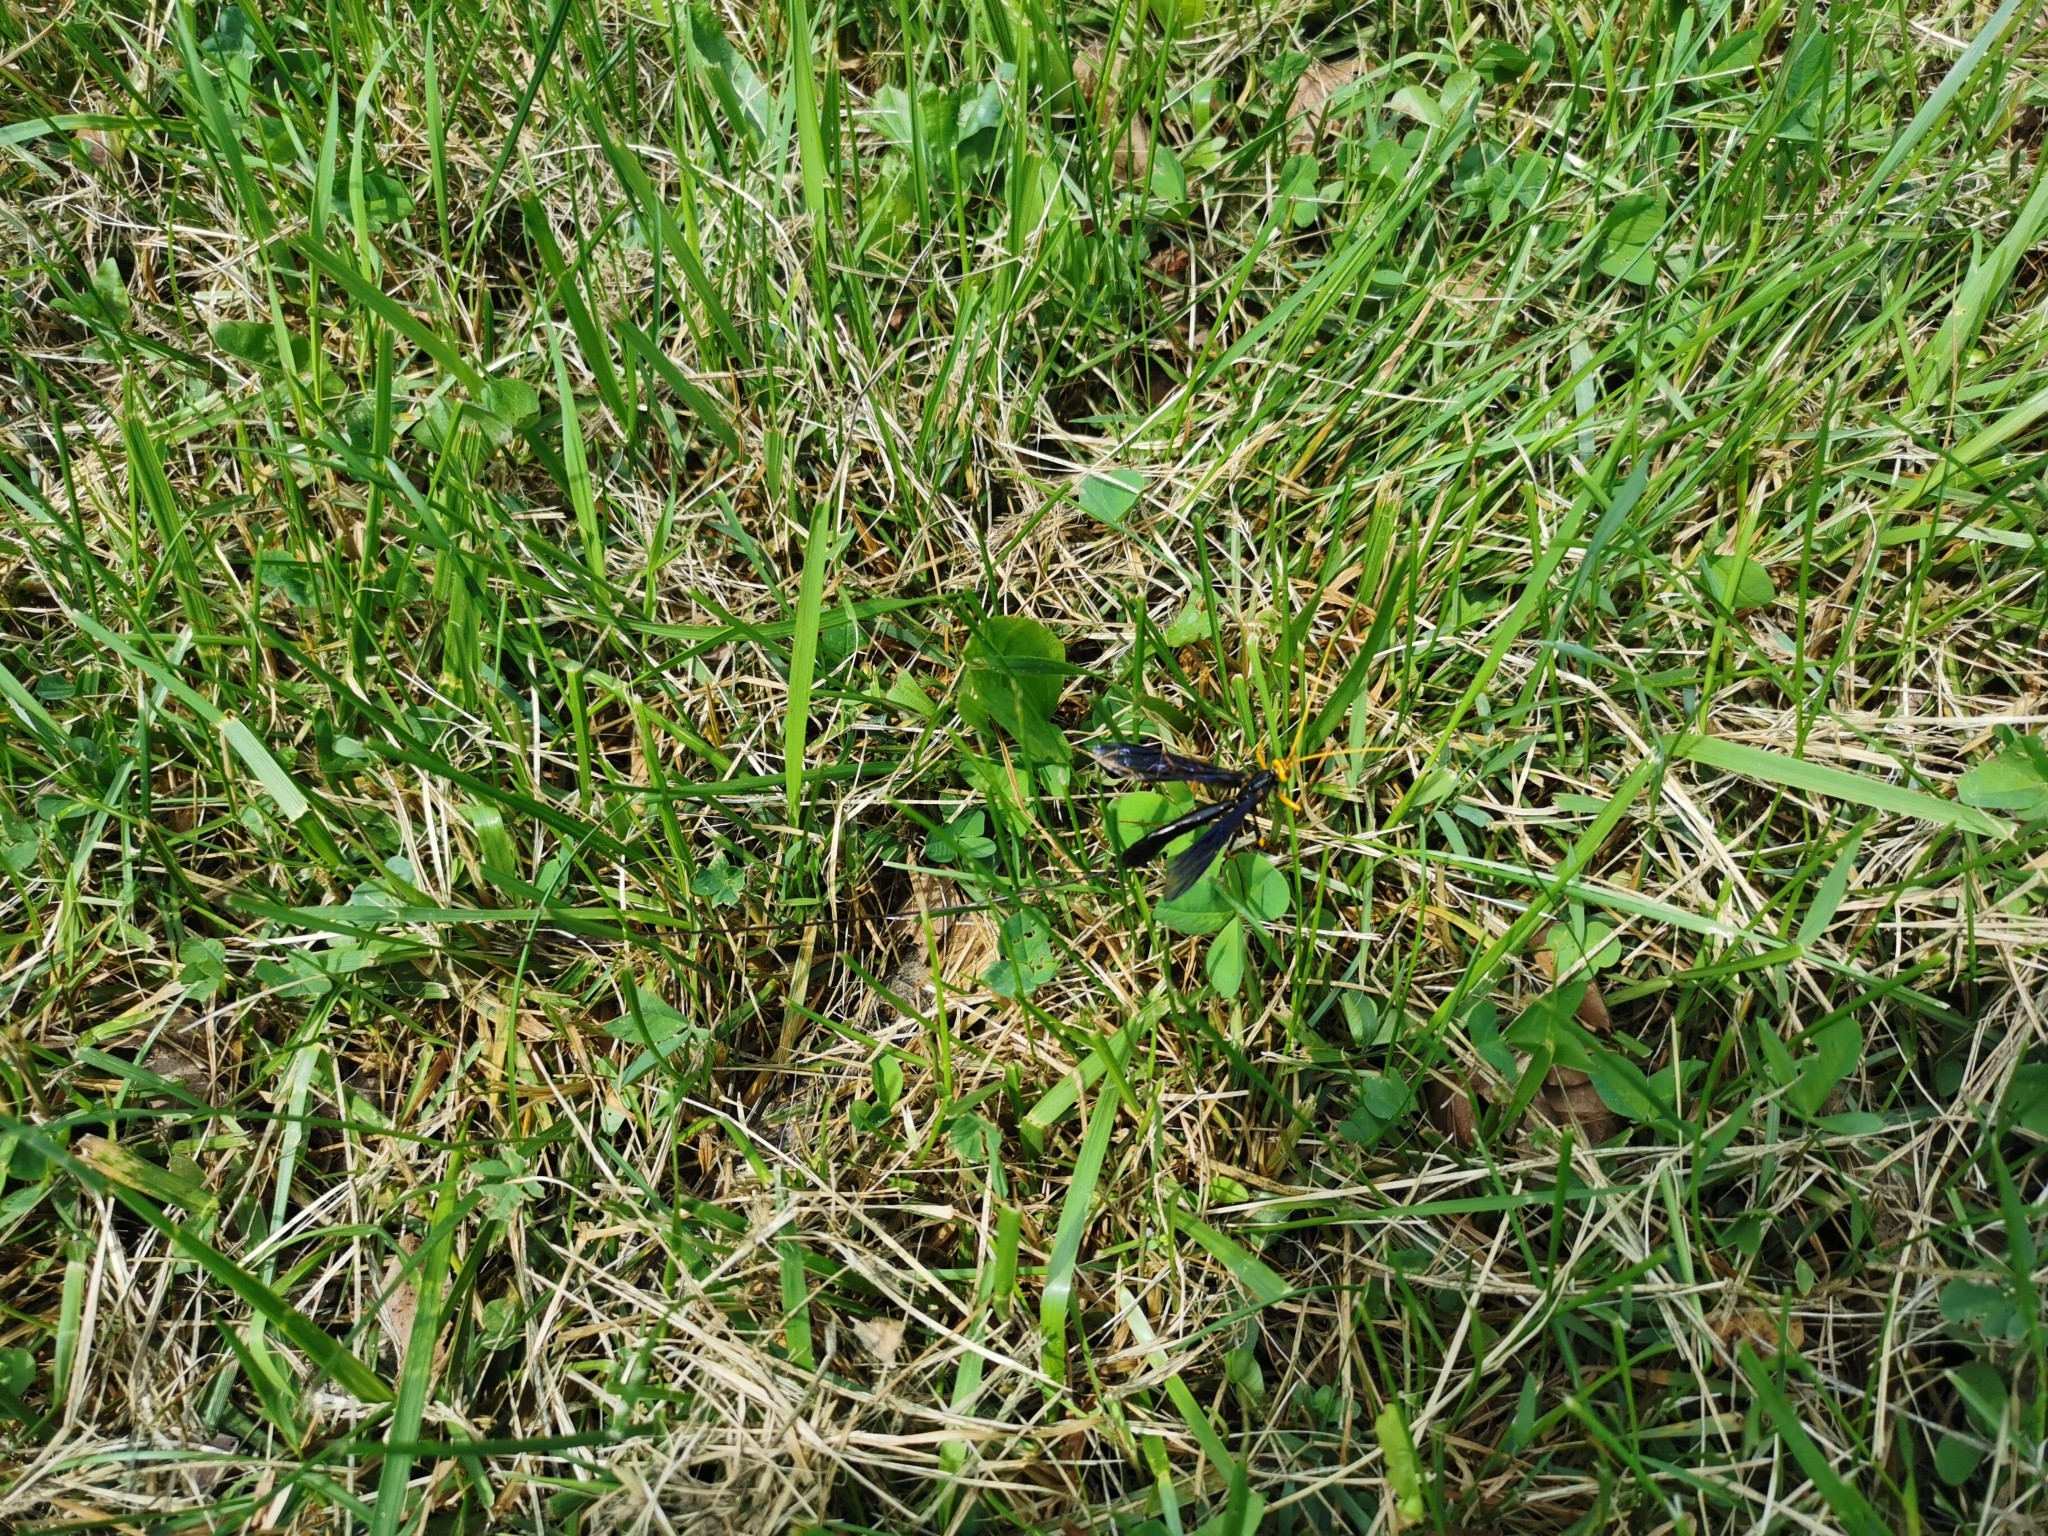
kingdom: Animalia
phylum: Arthropoda
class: Insecta
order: Hymenoptera
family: Ichneumonidae
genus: Megarhyssa
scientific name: Megarhyssa atrata
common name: Black giant ichneumonid wasp
